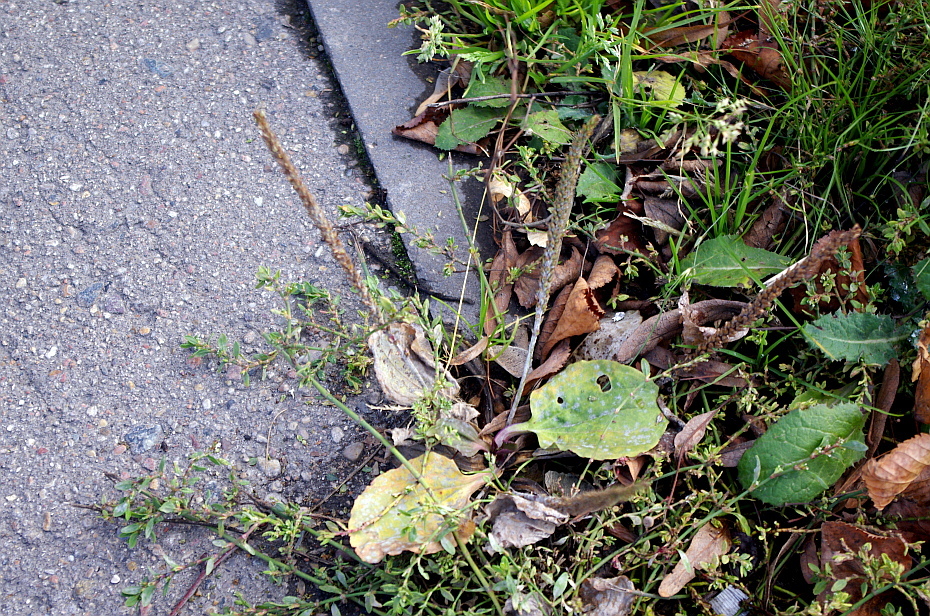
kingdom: Plantae
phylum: Tracheophyta
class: Magnoliopsida
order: Lamiales
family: Plantaginaceae
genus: Plantago
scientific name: Plantago major
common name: Common plantain
